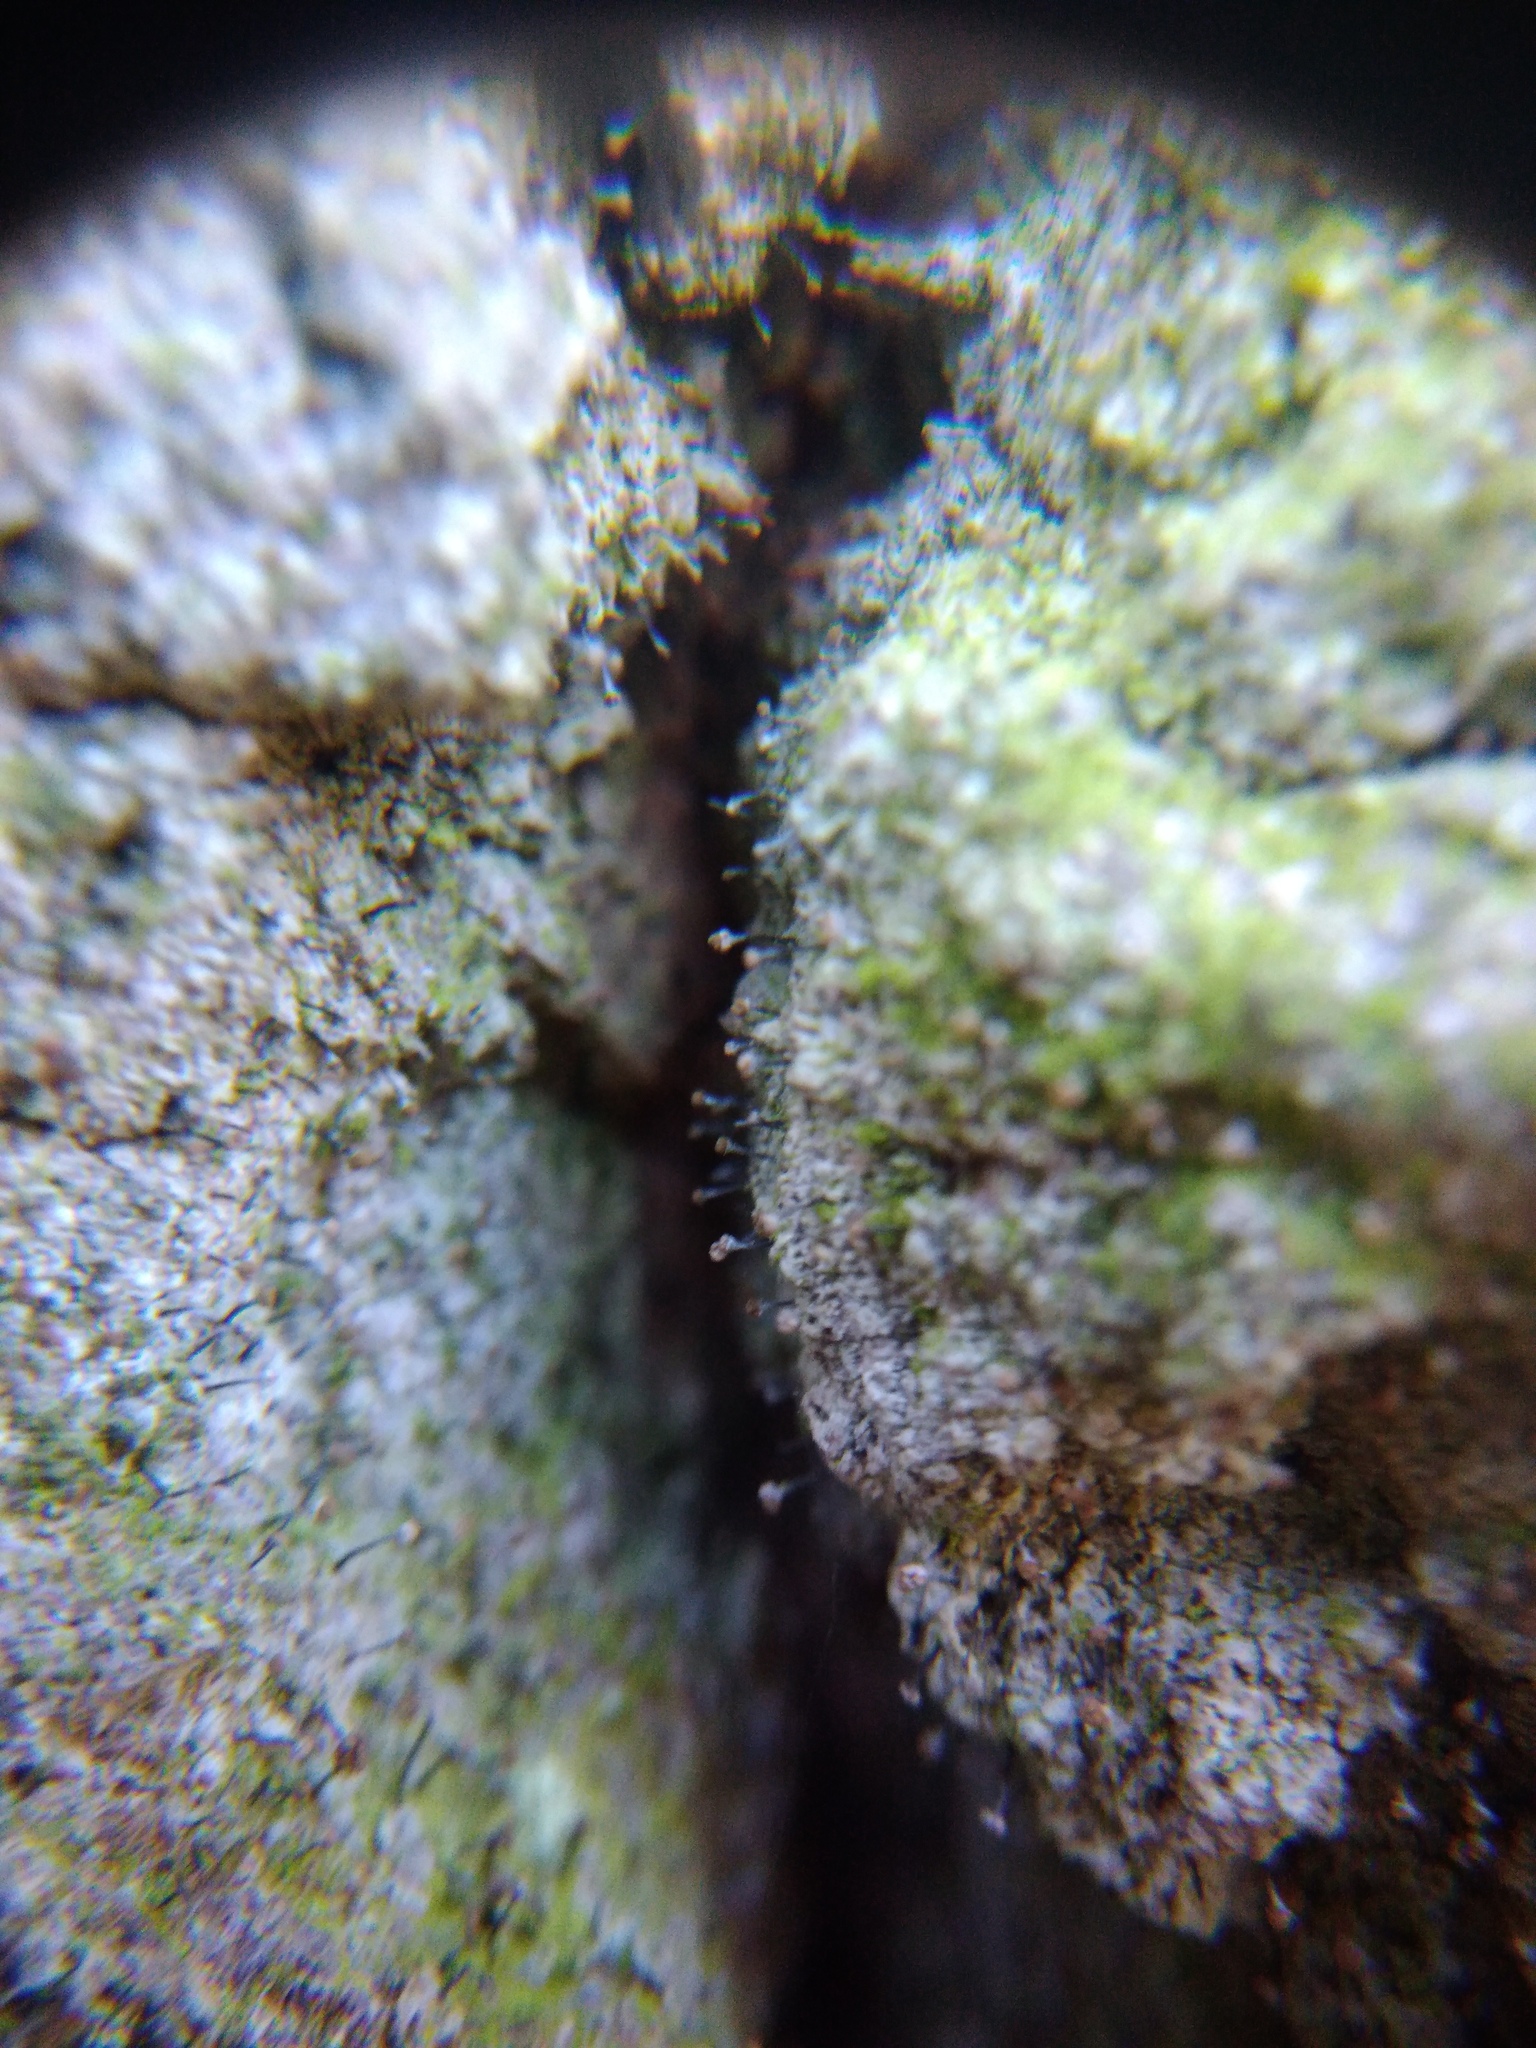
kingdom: Fungi
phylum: Ascomycota
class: Coniocybomycetes
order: Coniocybales
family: Coniocybaceae
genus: Chaenotheca
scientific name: Chaenotheca trichialis
